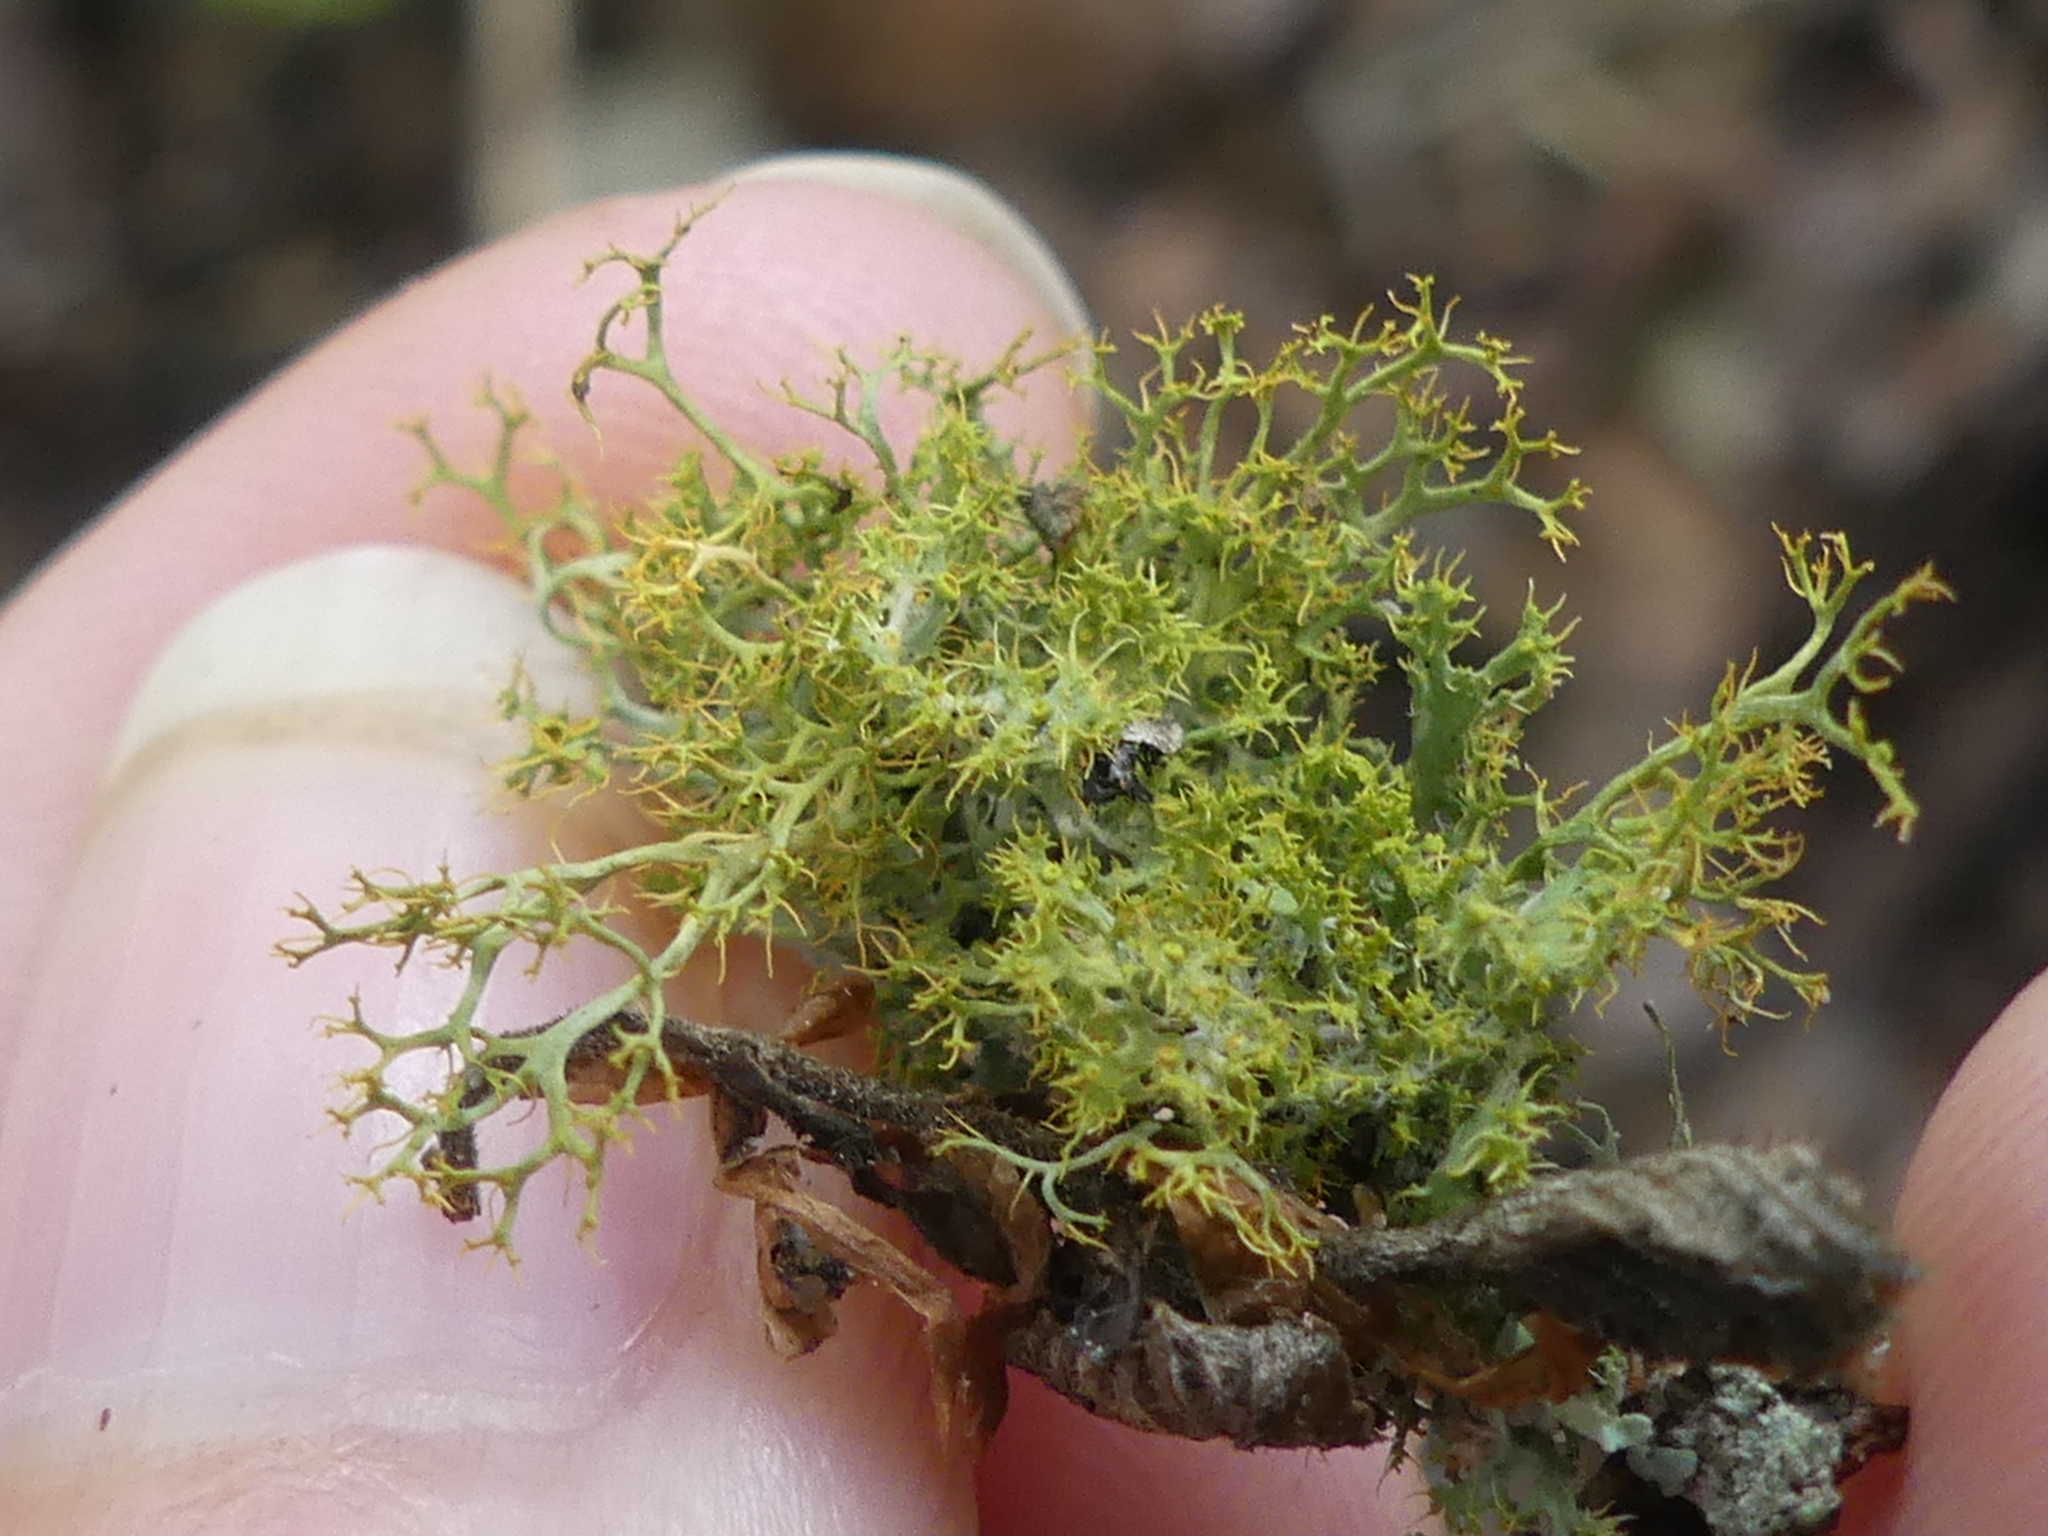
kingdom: Fungi
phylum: Ascomycota
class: Lecanoromycetes
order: Teloschistales
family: Teloschistaceae
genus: Teloschistes
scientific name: Teloschistes exilis
